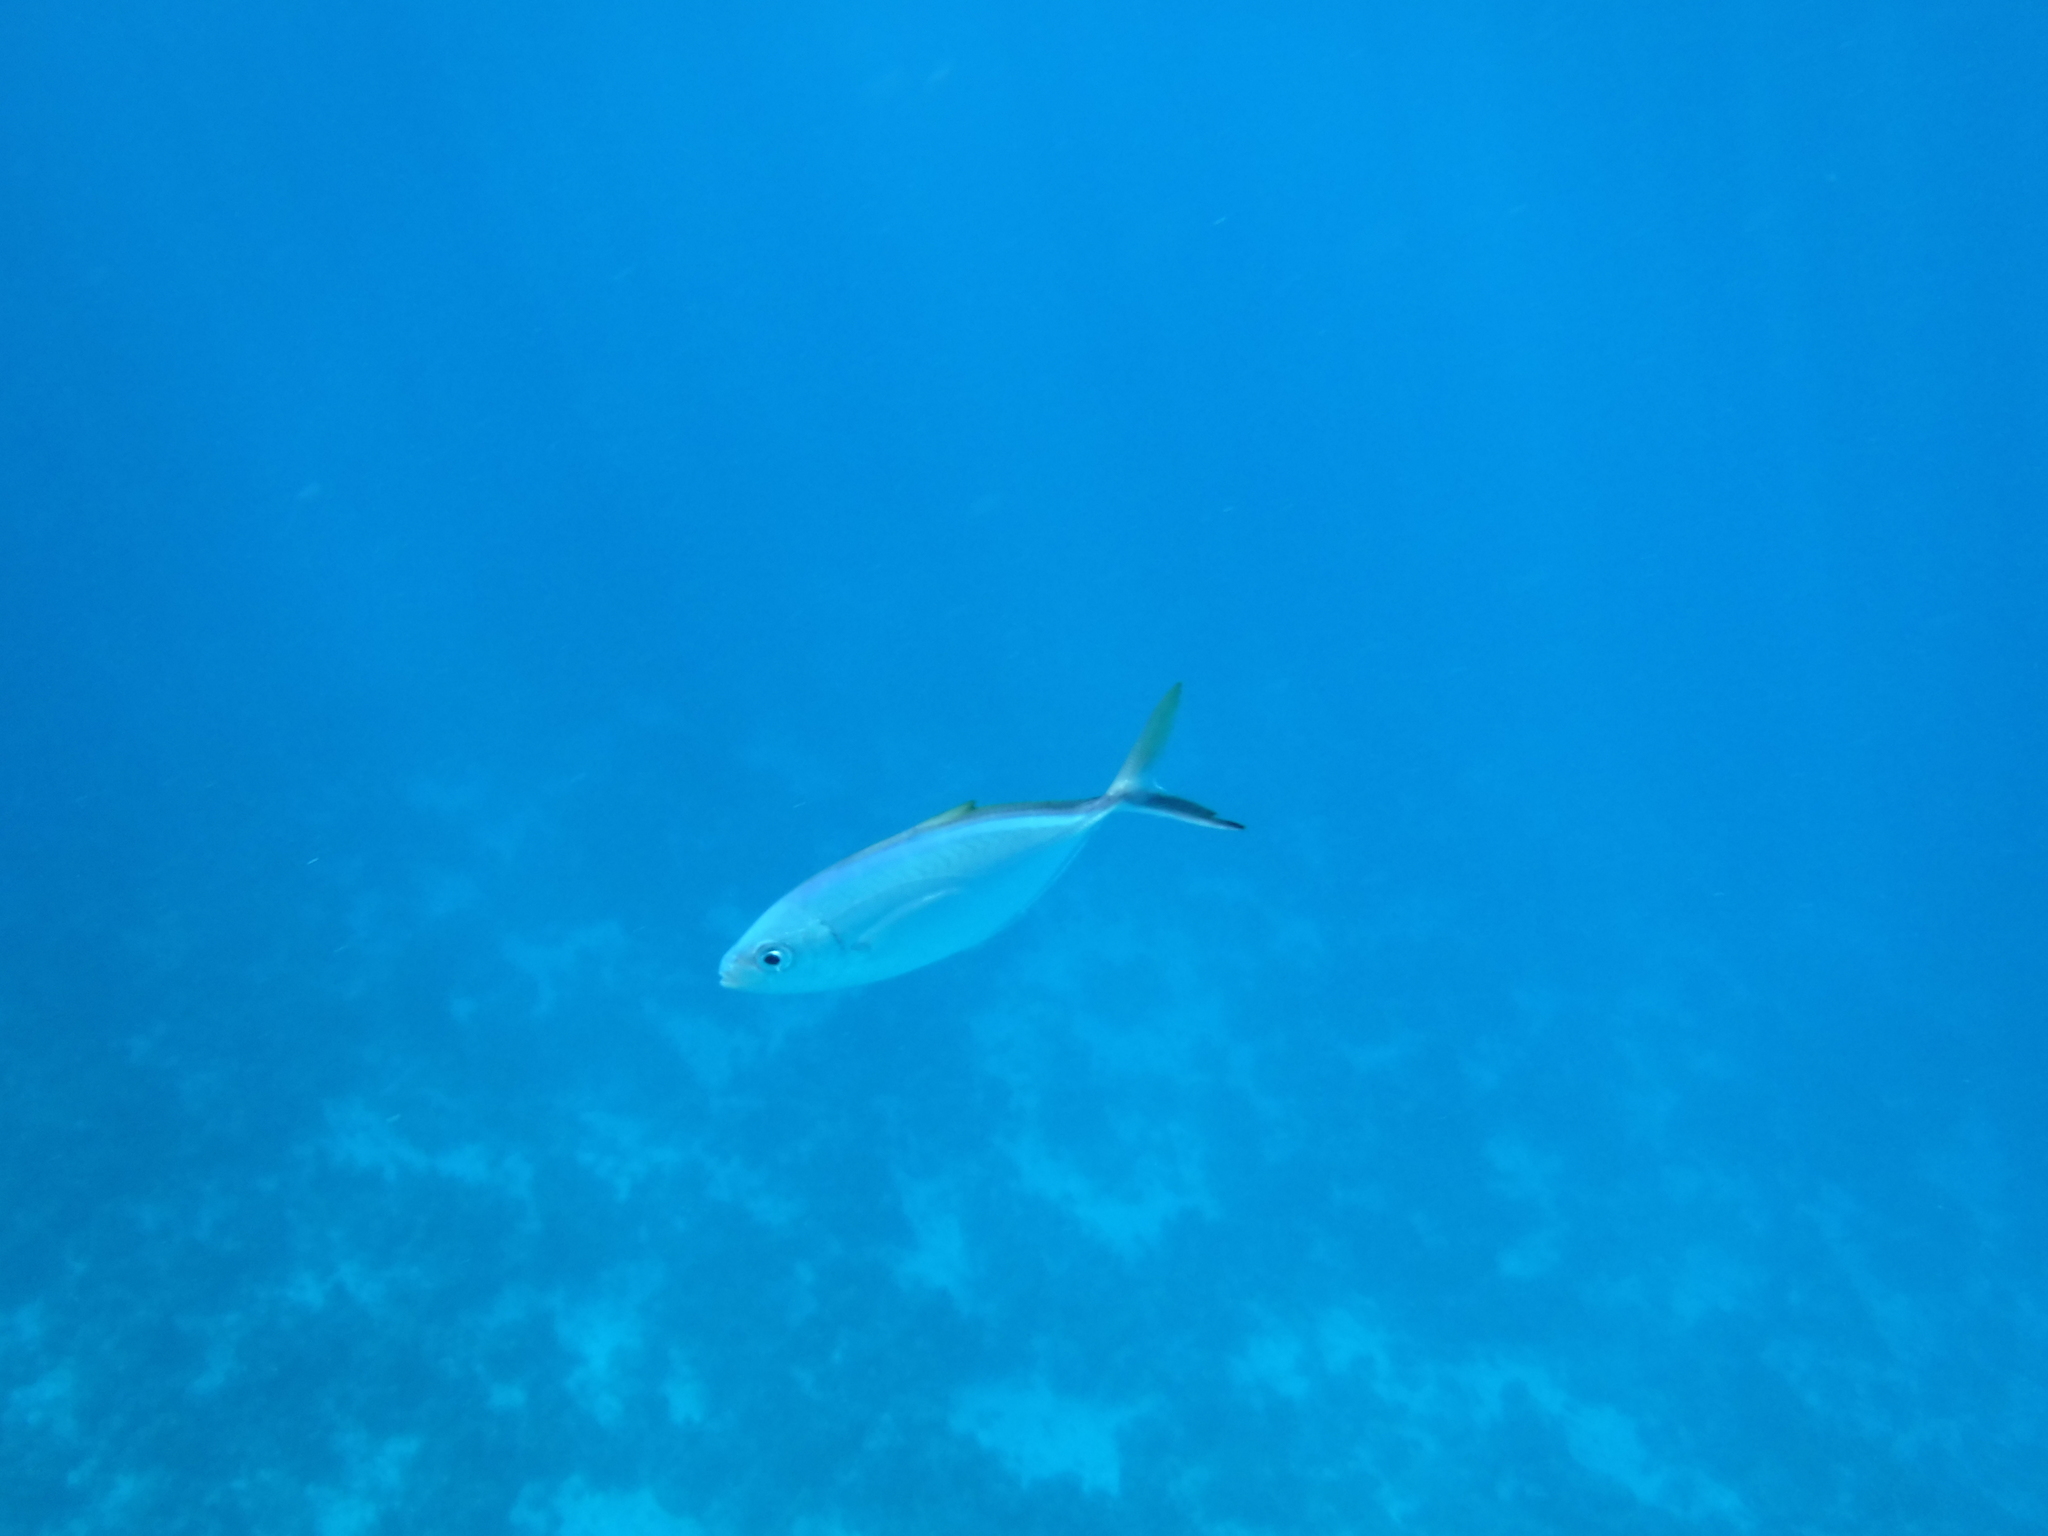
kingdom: Animalia
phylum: Chordata
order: Perciformes
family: Carangidae
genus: Caranx
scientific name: Caranx ruber
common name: Bar jack
